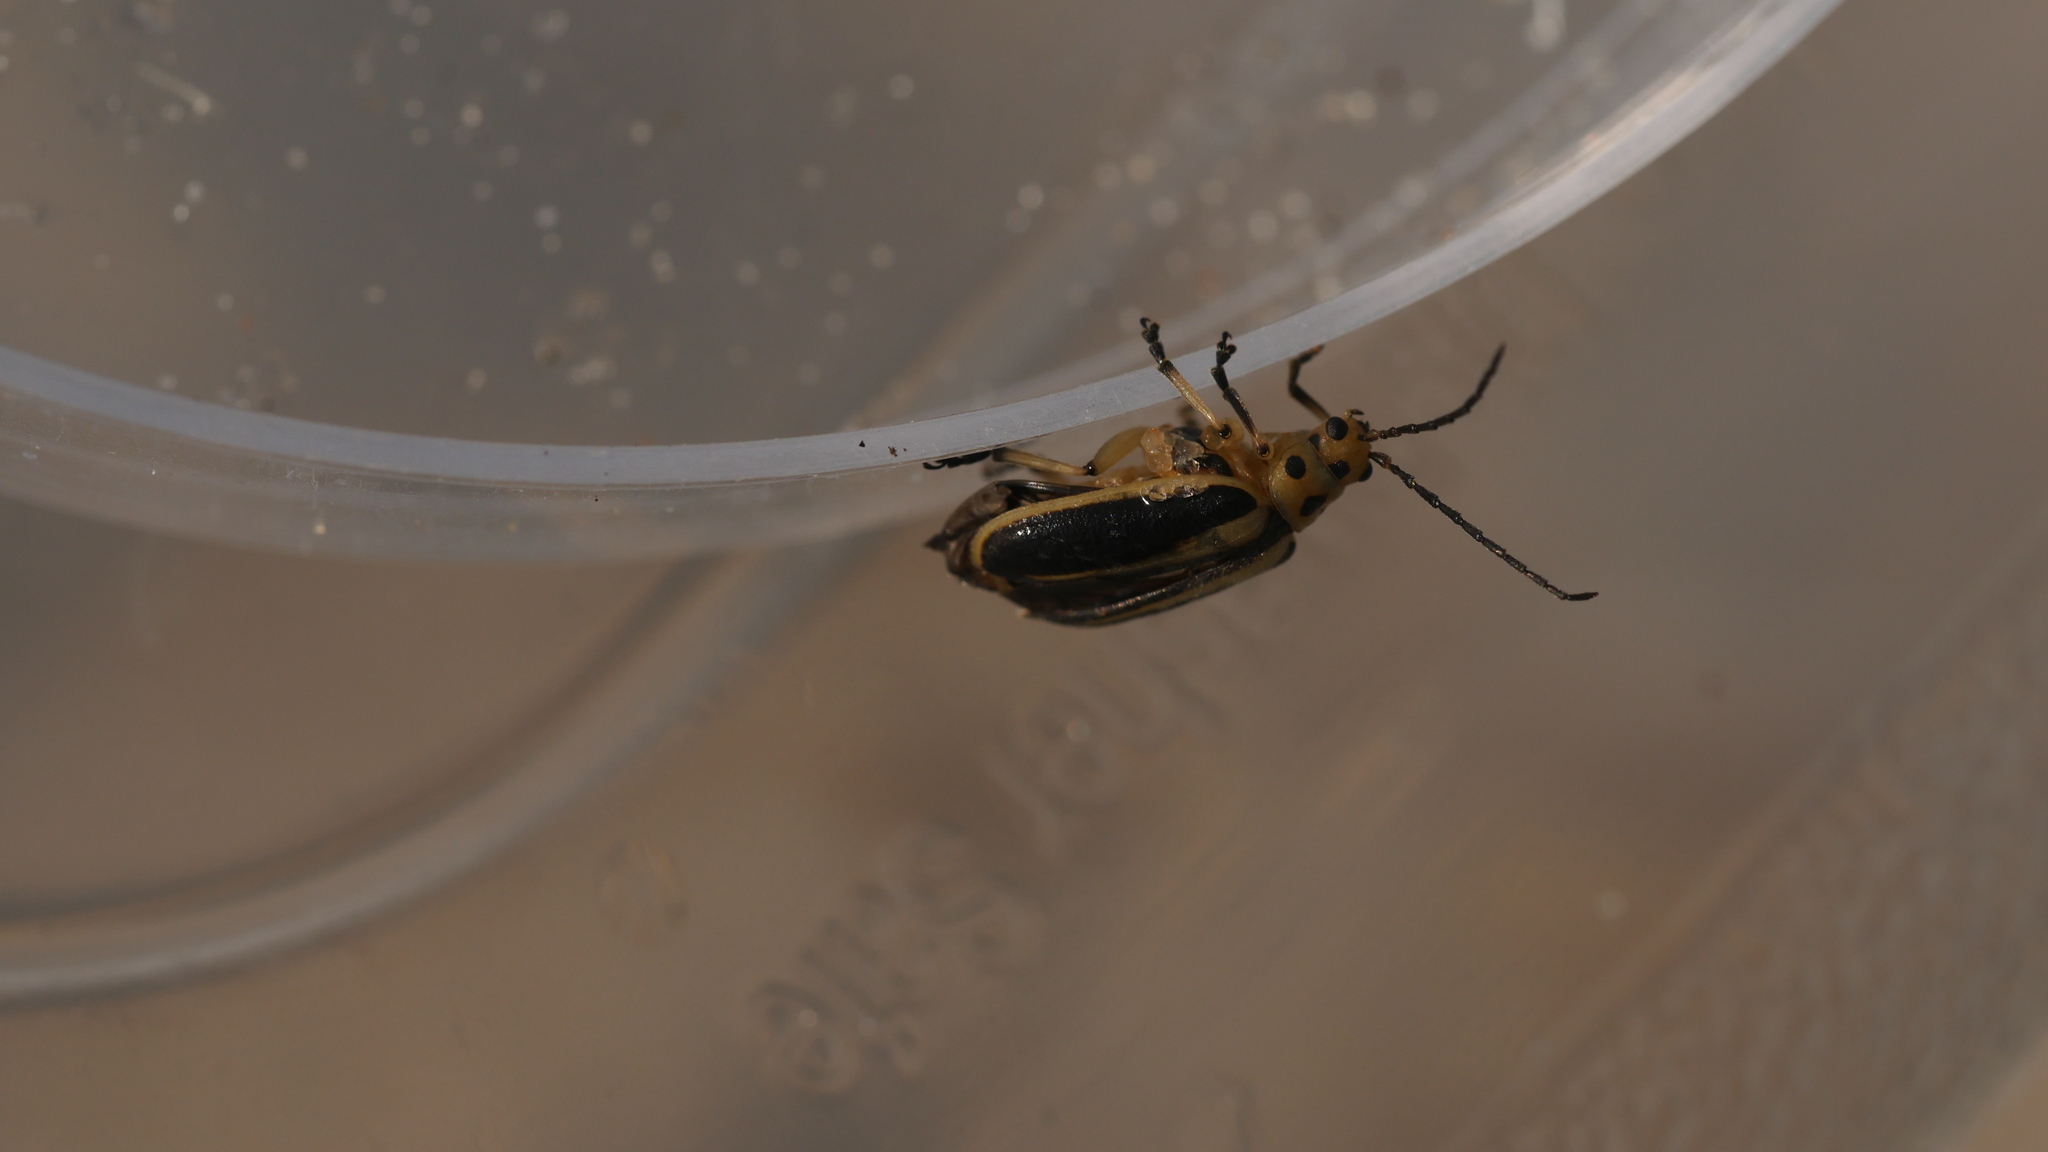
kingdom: Animalia
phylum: Arthropoda
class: Insecta
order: Coleoptera
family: Chrysomelidae
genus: Trirhabda
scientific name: Trirhabda bacharidis
